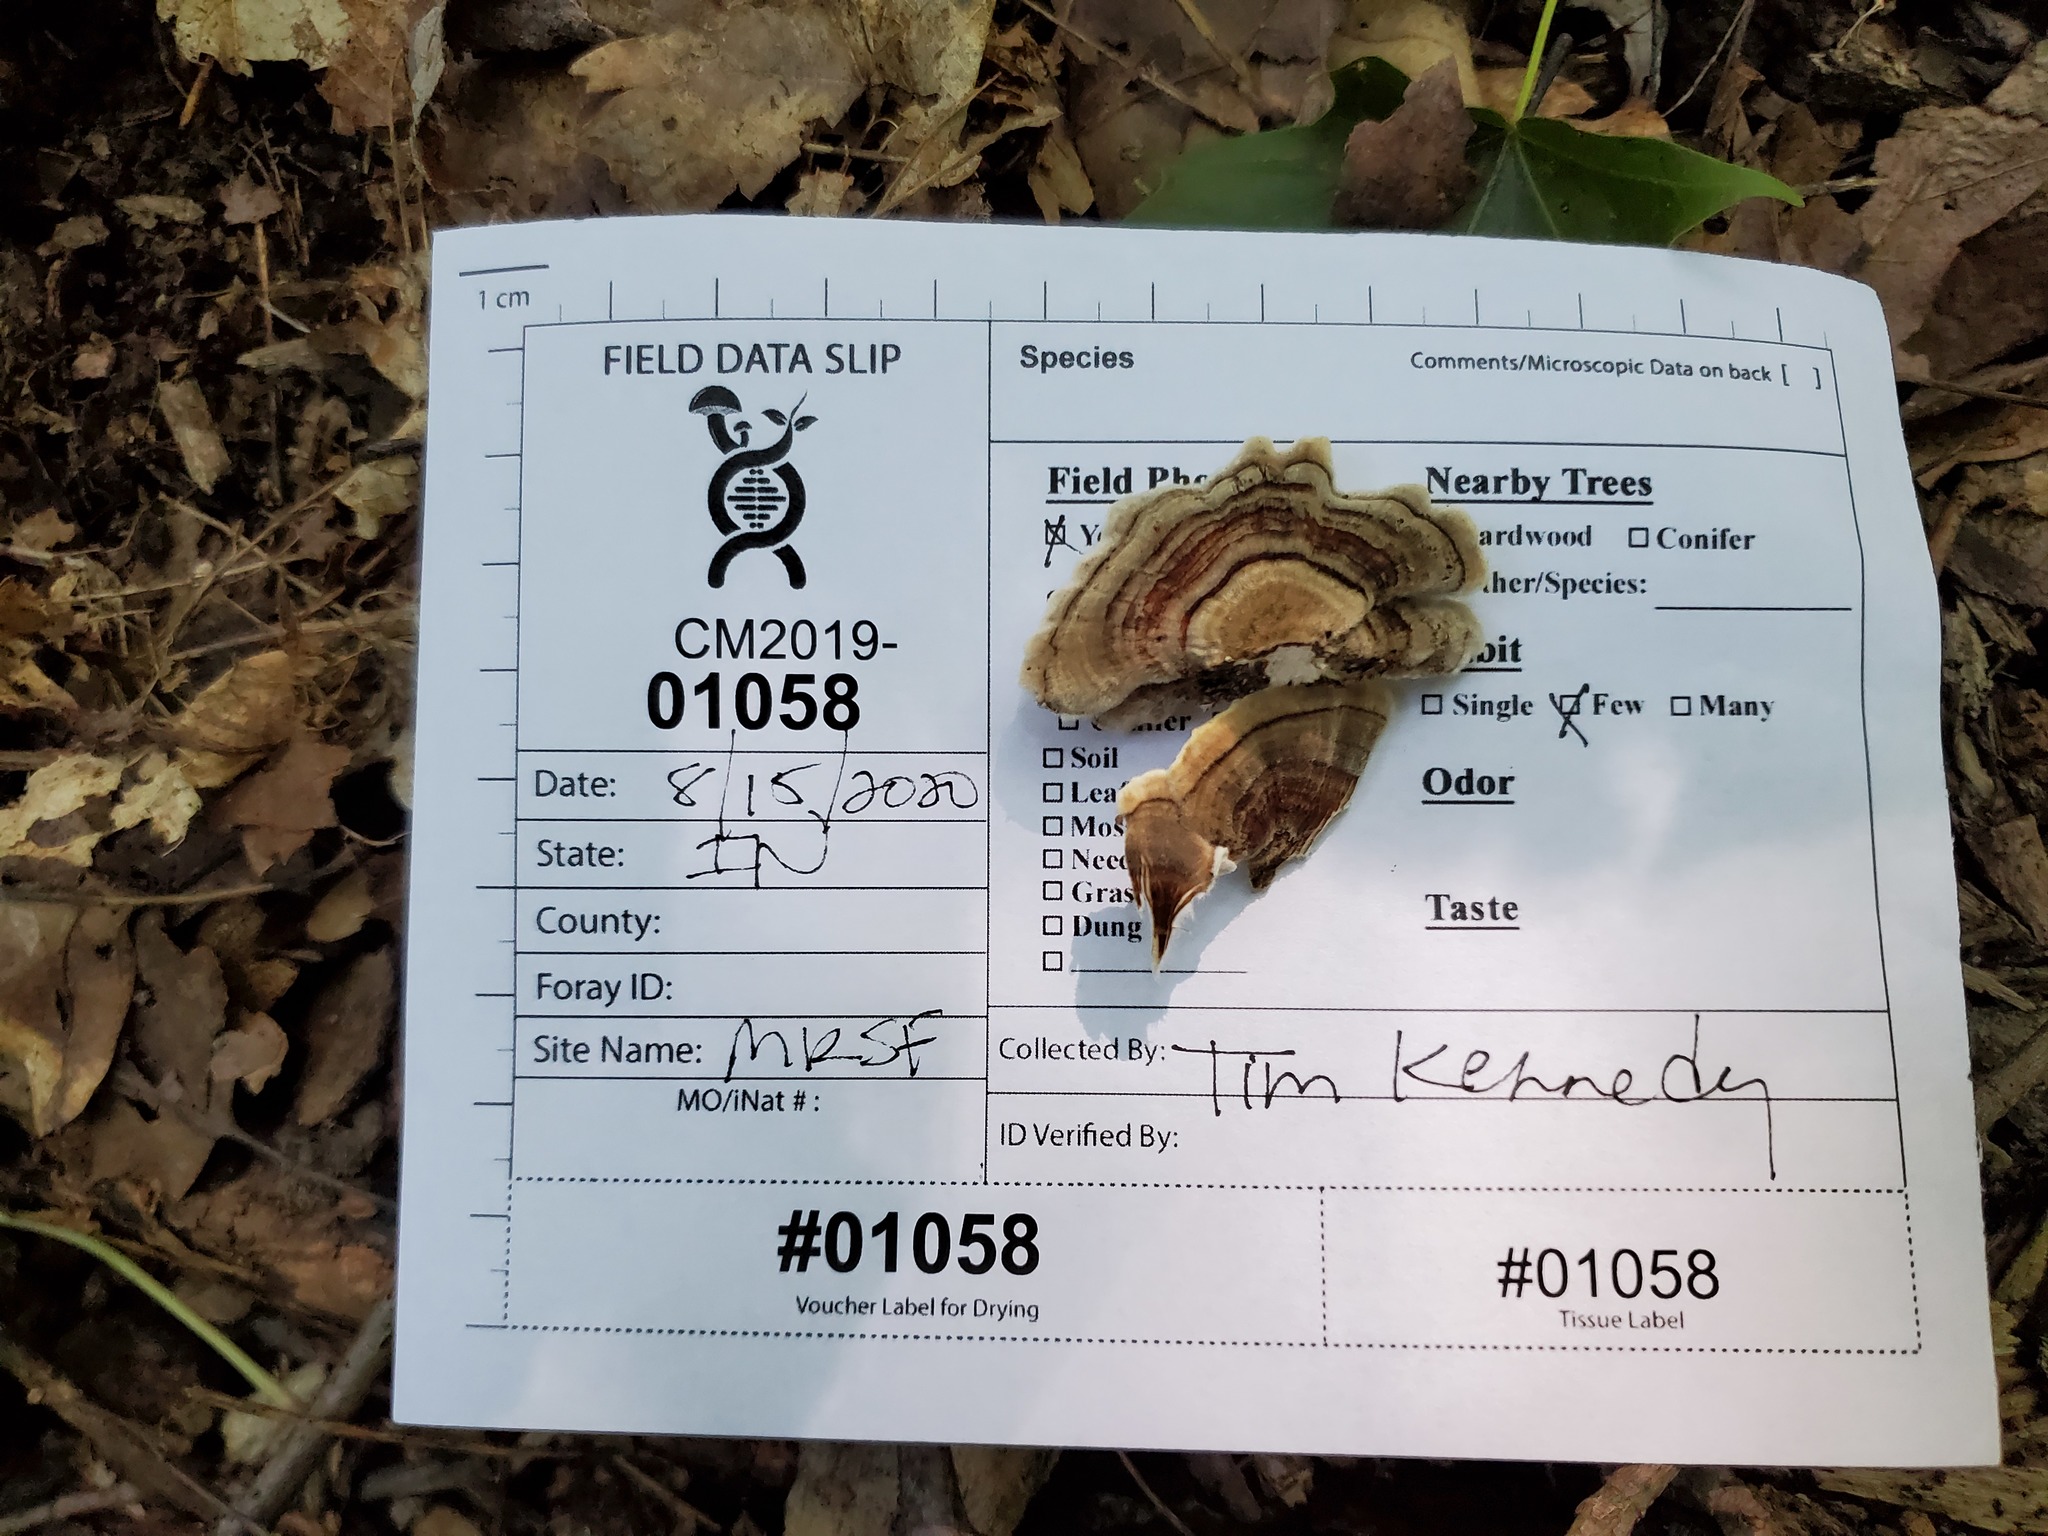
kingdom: Fungi
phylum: Basidiomycota
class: Agaricomycetes
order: Polyporales
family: Polyporaceae
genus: Trametes
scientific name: Trametes versicolor
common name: Turkeytail
